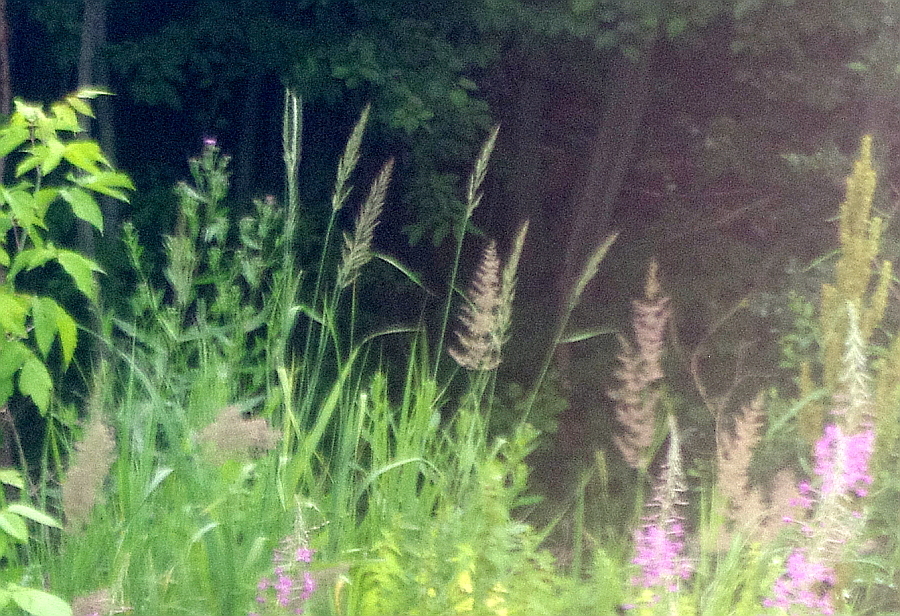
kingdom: Plantae
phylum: Tracheophyta
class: Liliopsida
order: Poales
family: Poaceae
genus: Calamagrostis
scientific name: Calamagrostis epigejos
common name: Wood small-reed
